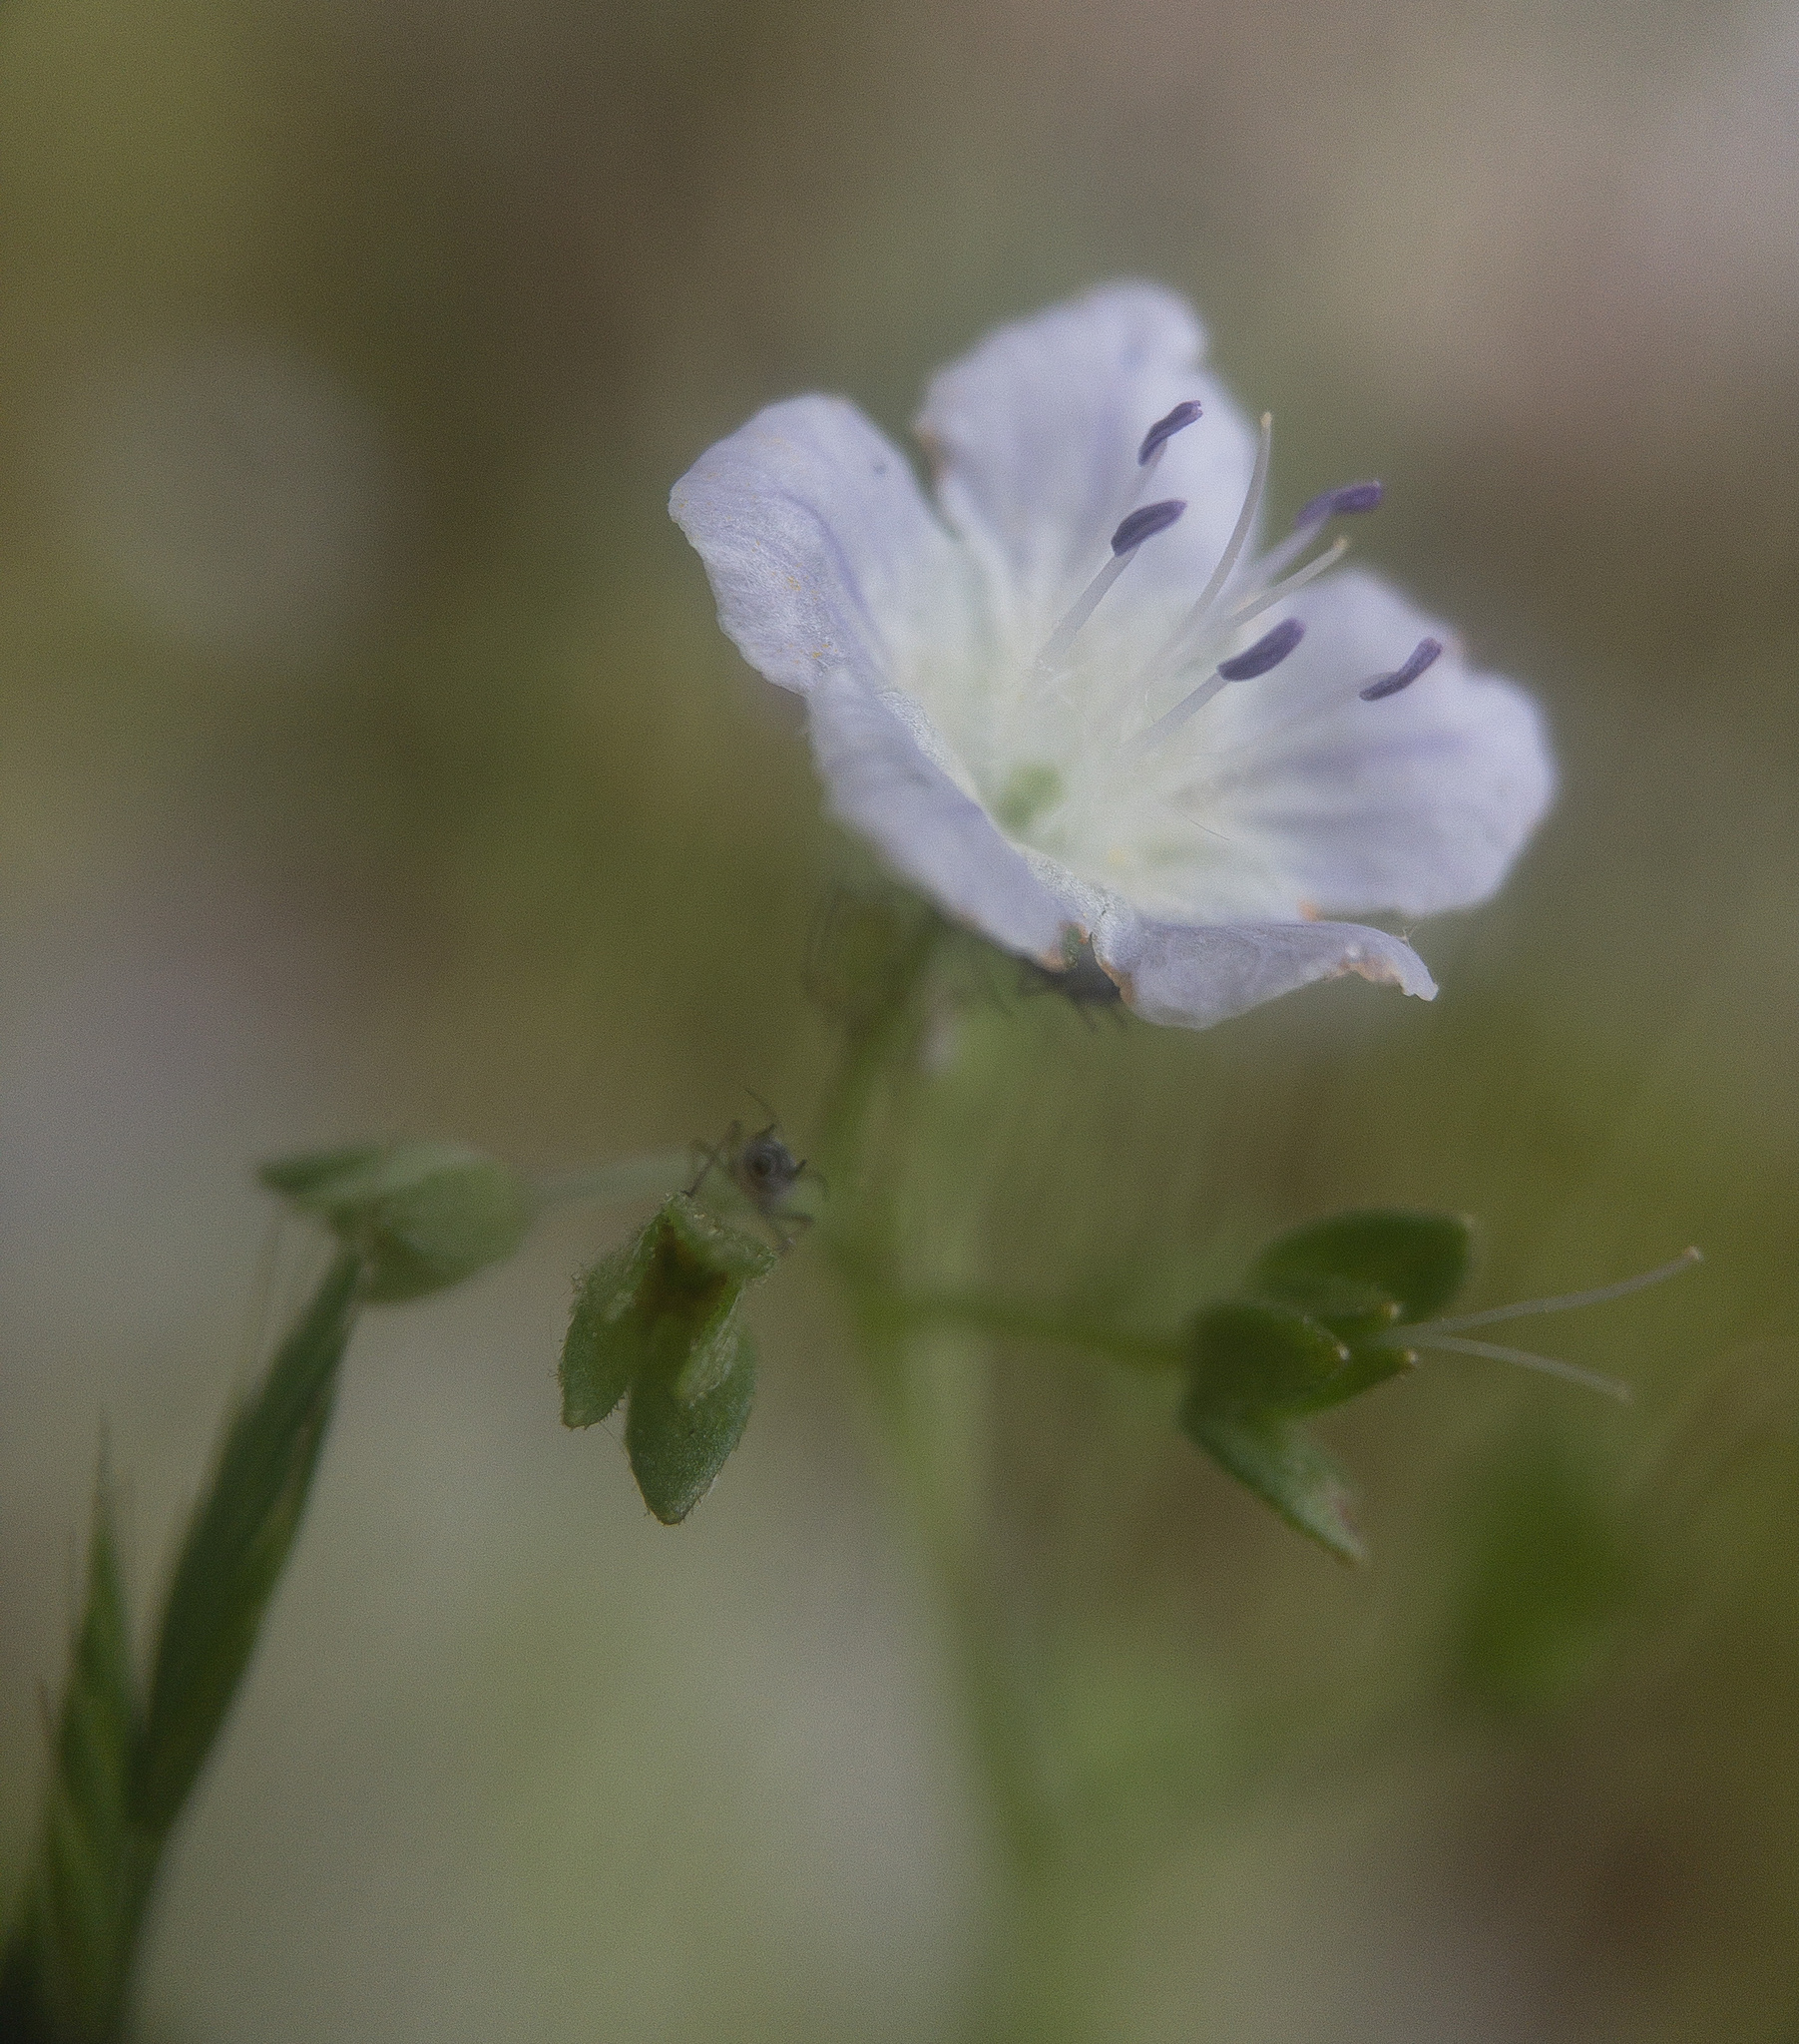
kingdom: Plantae
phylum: Tracheophyta
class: Magnoliopsida
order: Boraginales
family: Hydrophyllaceae
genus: Phacelia
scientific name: Phacelia dubia
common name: Appalachian phacelia
